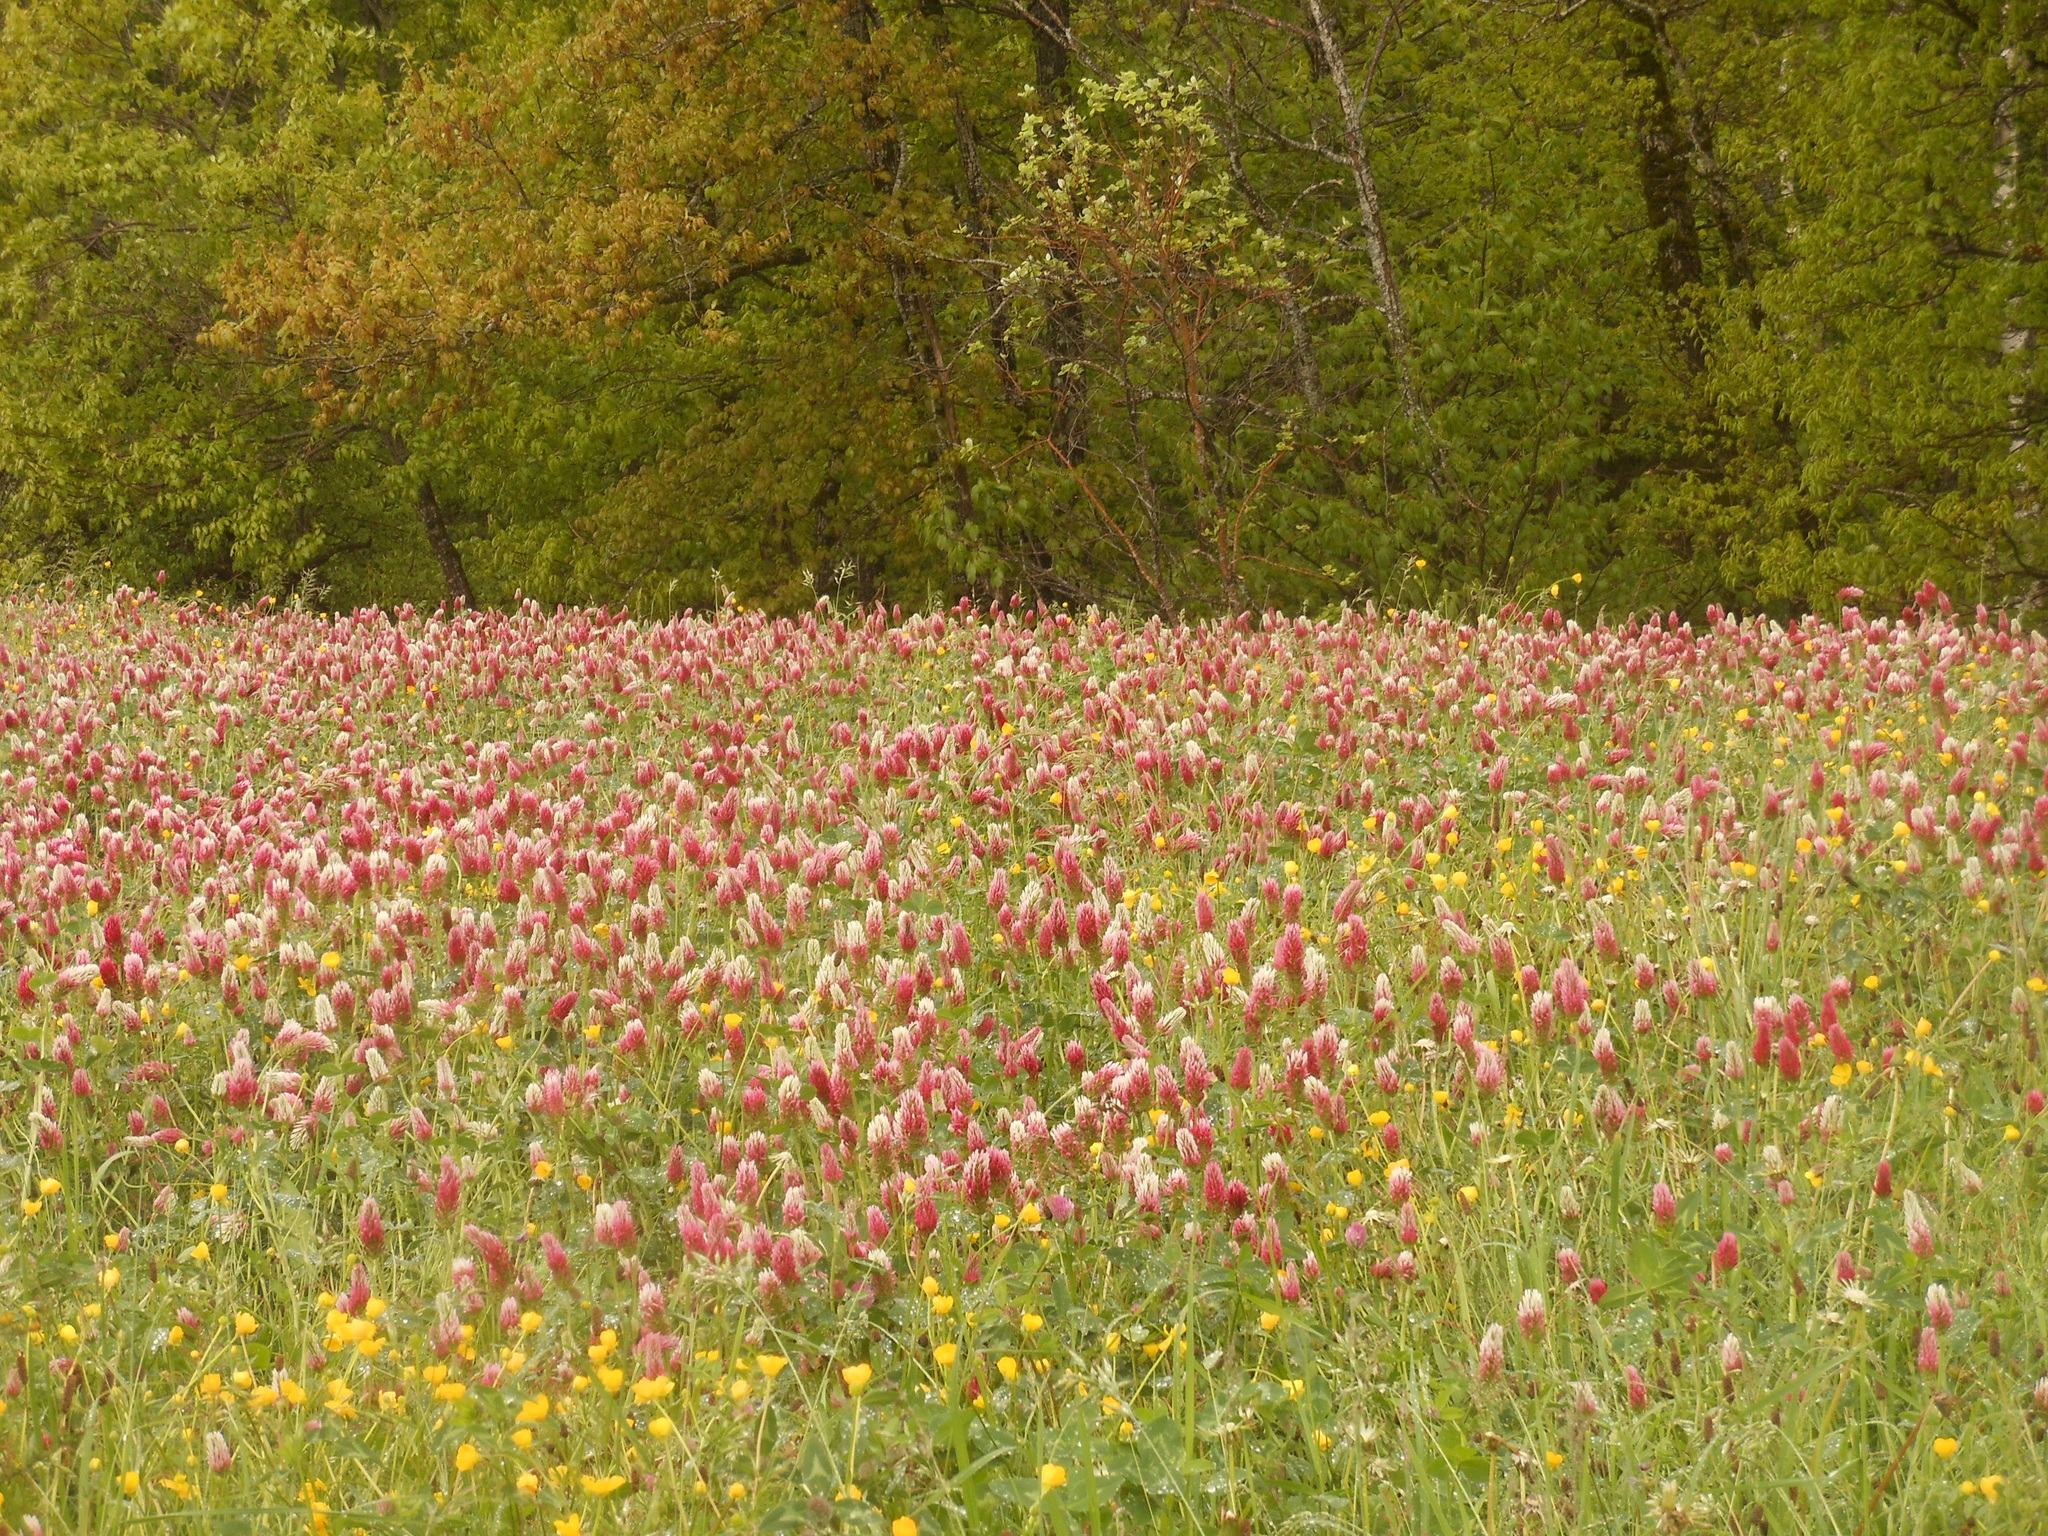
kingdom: Plantae
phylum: Tracheophyta
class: Magnoliopsida
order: Fabales
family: Fabaceae
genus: Trifolium
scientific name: Trifolium incarnatum
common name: Crimson clover
